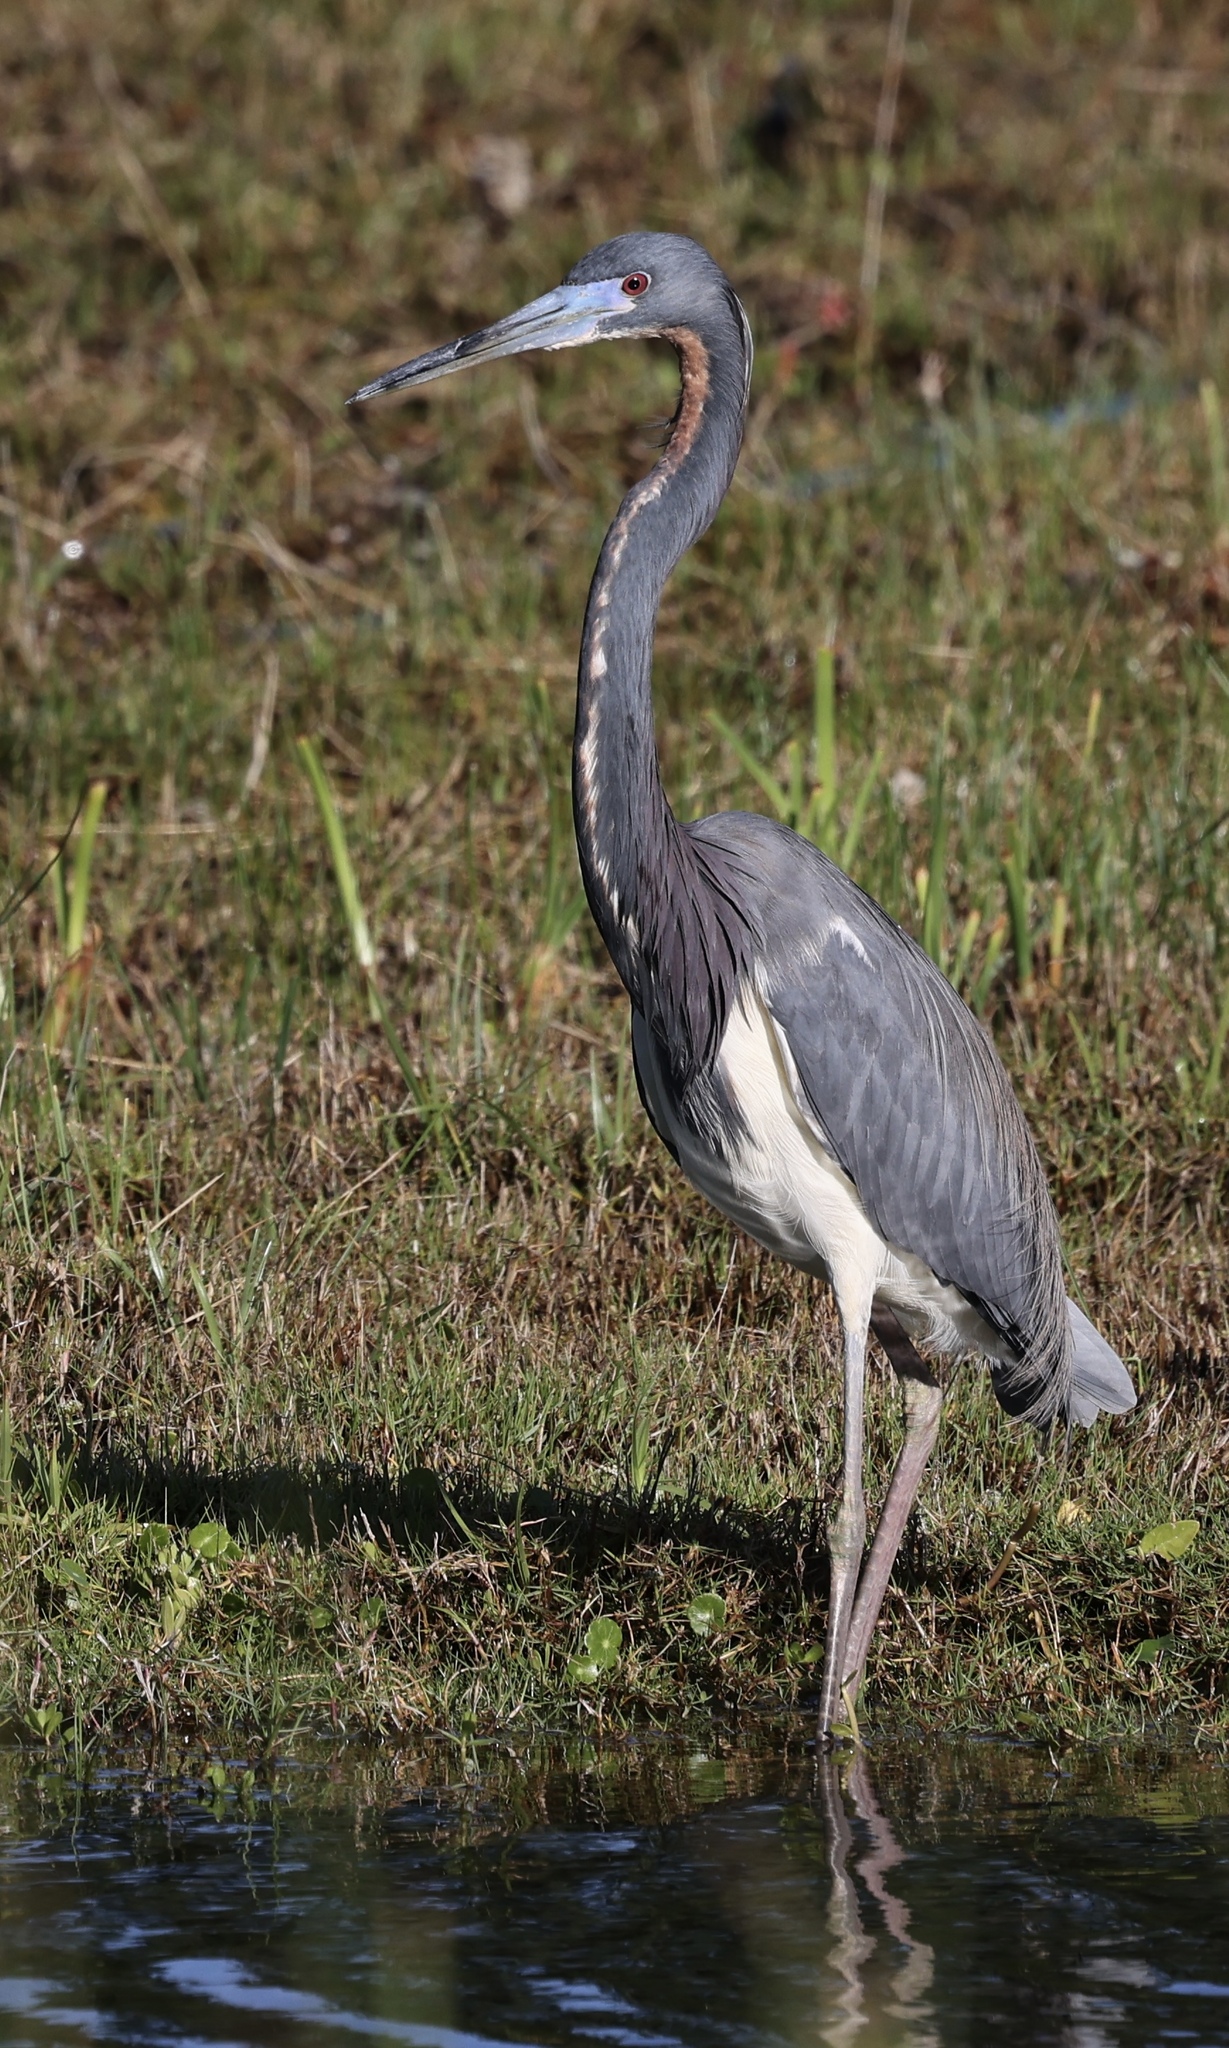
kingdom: Animalia
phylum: Chordata
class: Aves
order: Pelecaniformes
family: Ardeidae
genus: Egretta
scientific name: Egretta tricolor
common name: Tricolored heron
